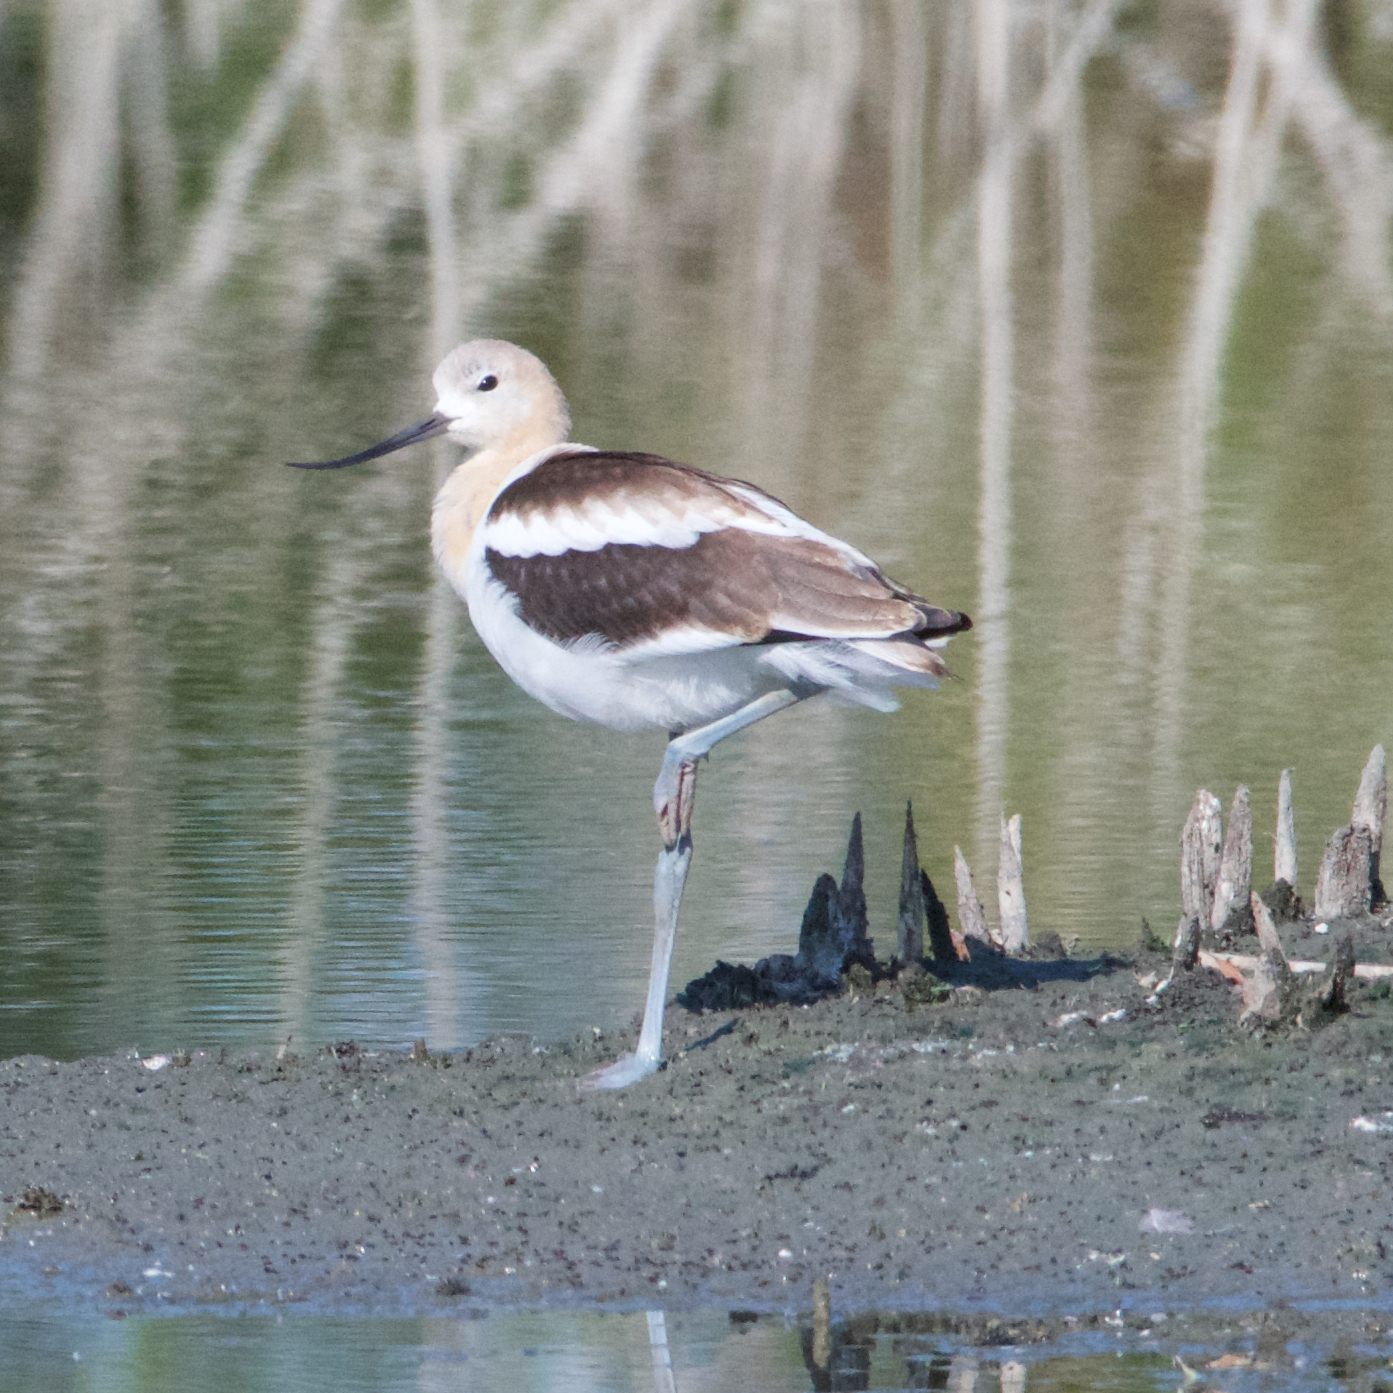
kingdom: Animalia
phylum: Chordata
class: Aves
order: Charadriiformes
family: Recurvirostridae
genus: Recurvirostra
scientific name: Recurvirostra americana
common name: American avocet
